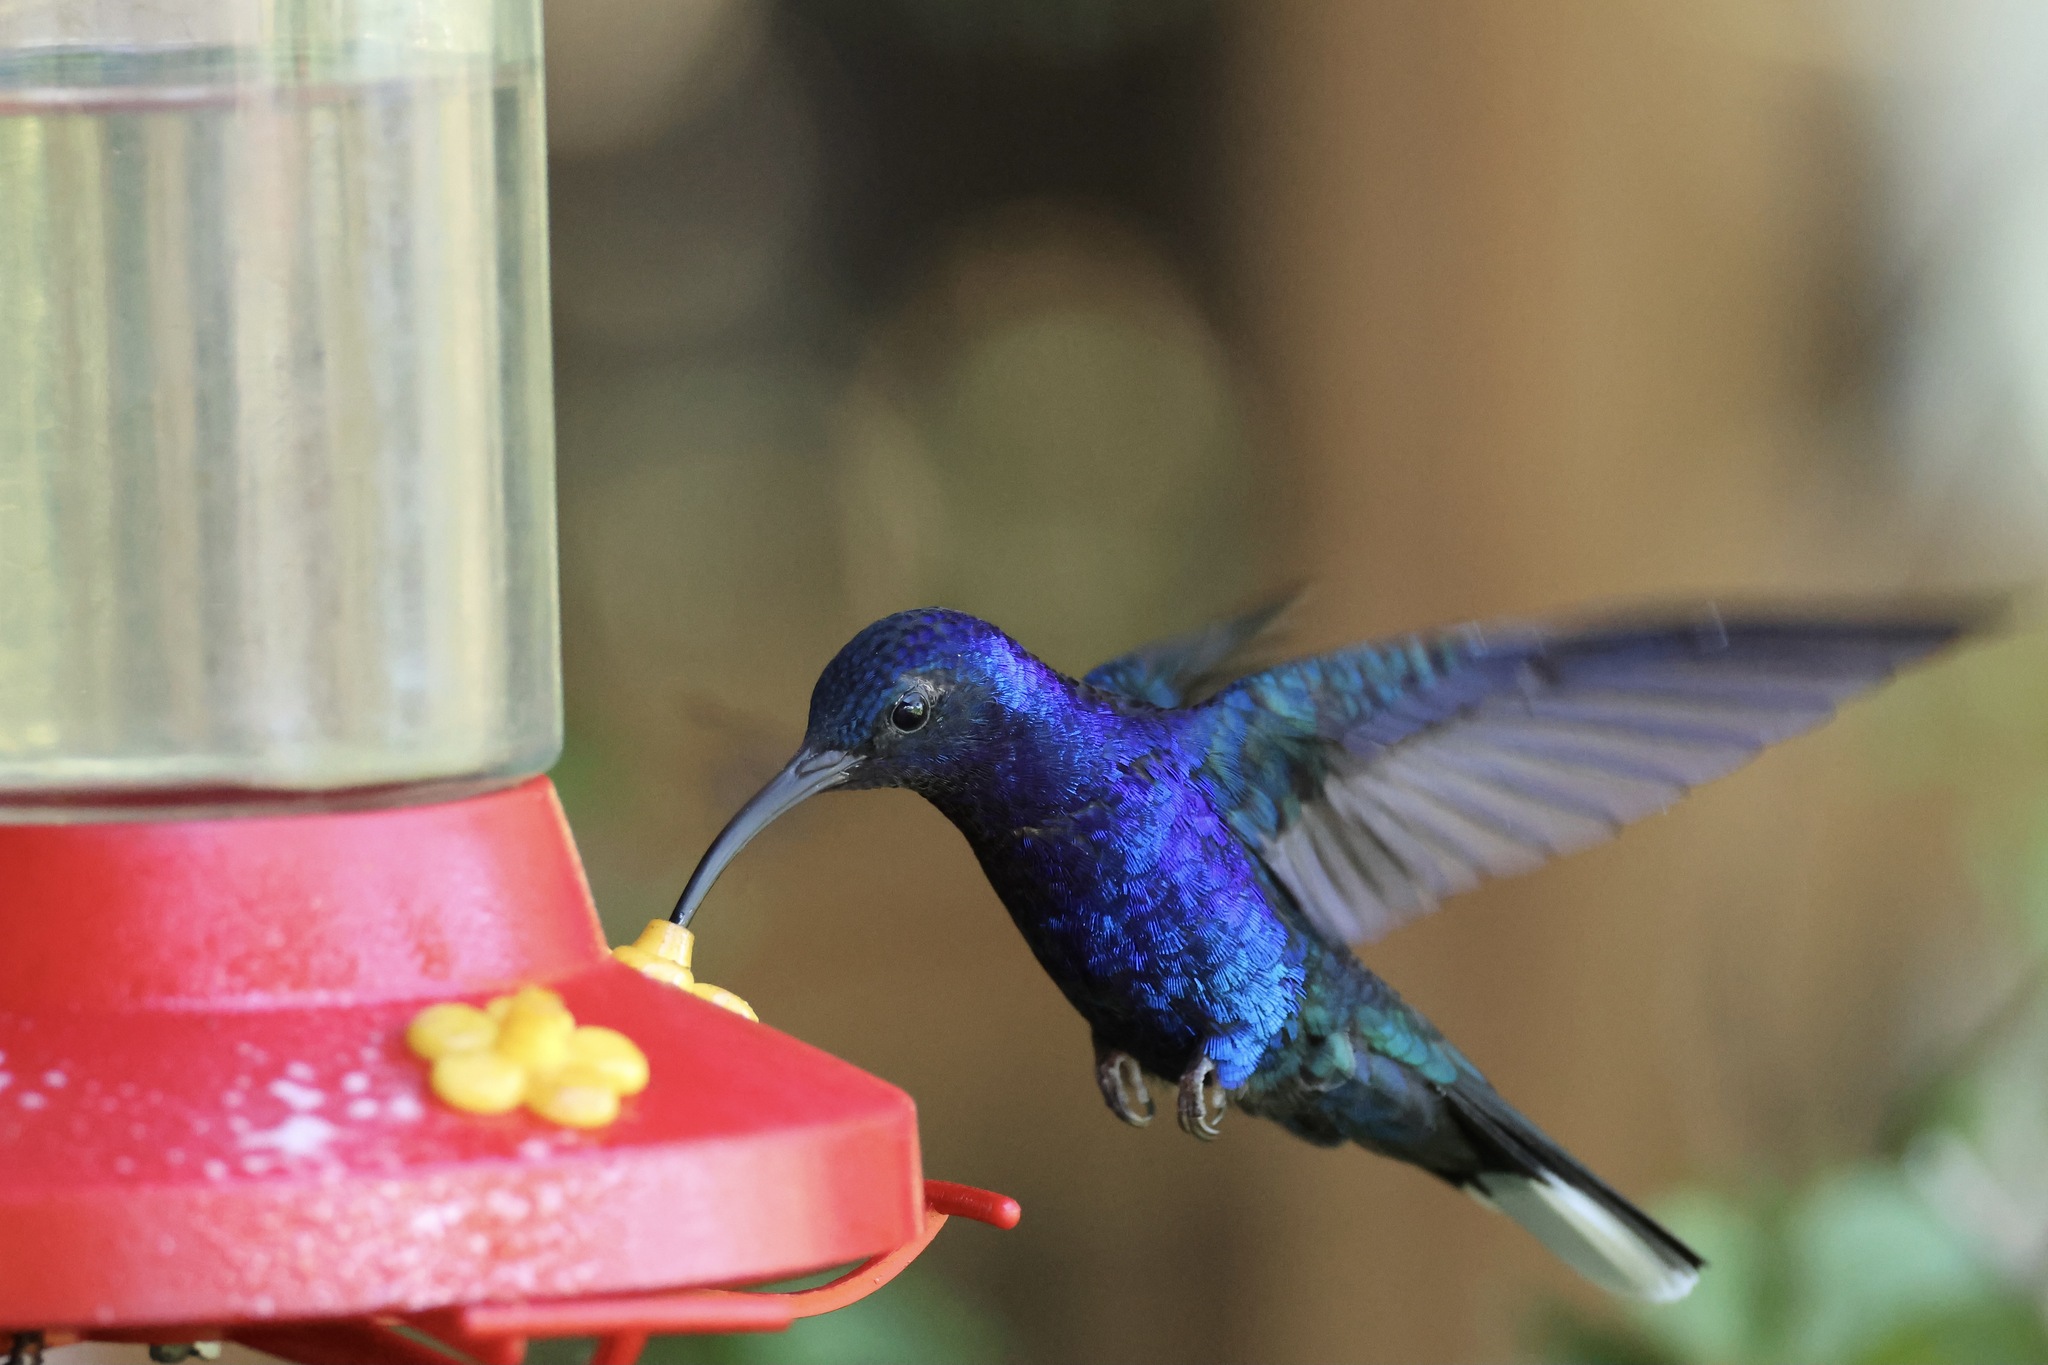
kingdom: Animalia
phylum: Chordata
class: Aves
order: Apodiformes
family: Trochilidae
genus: Campylopterus
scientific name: Campylopterus hemileucurus
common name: Violet sabrewing
